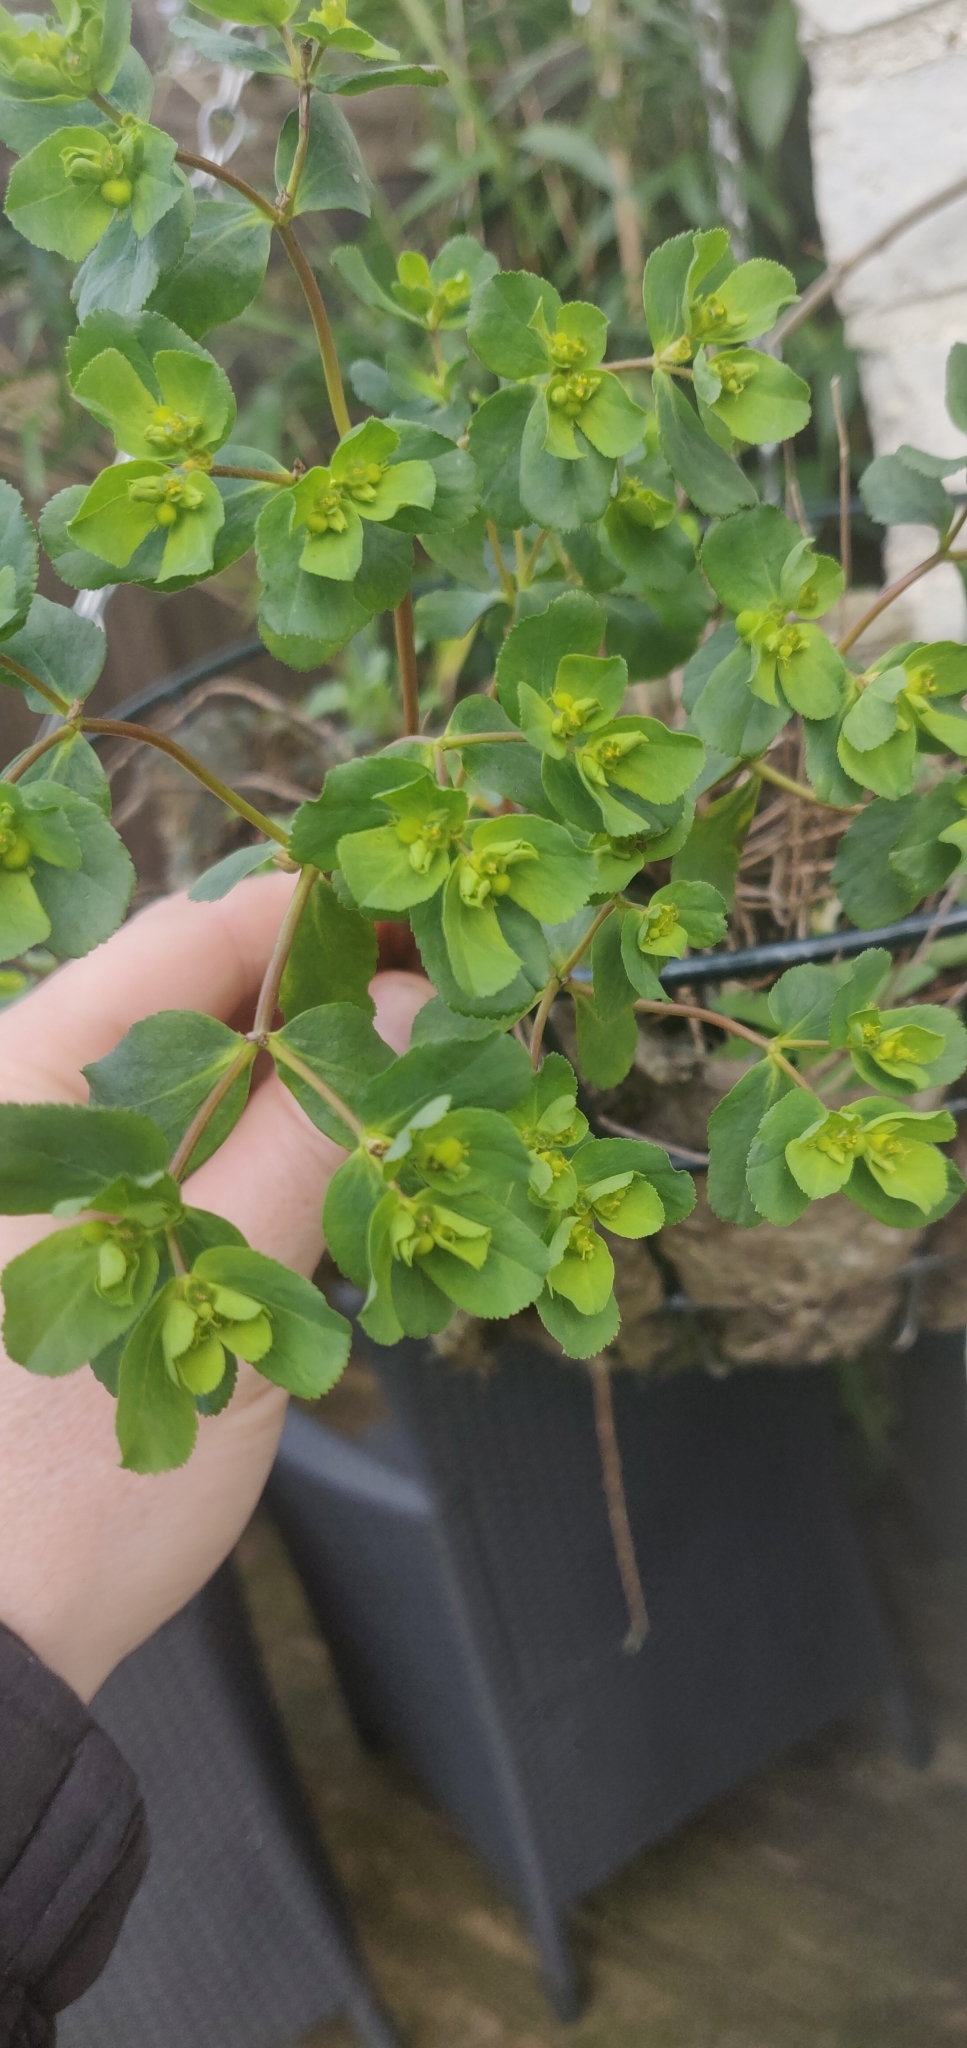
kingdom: Plantae
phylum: Tracheophyta
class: Magnoliopsida
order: Malpighiales
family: Euphorbiaceae
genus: Euphorbia
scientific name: Euphorbia helioscopia
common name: Sun spurge
